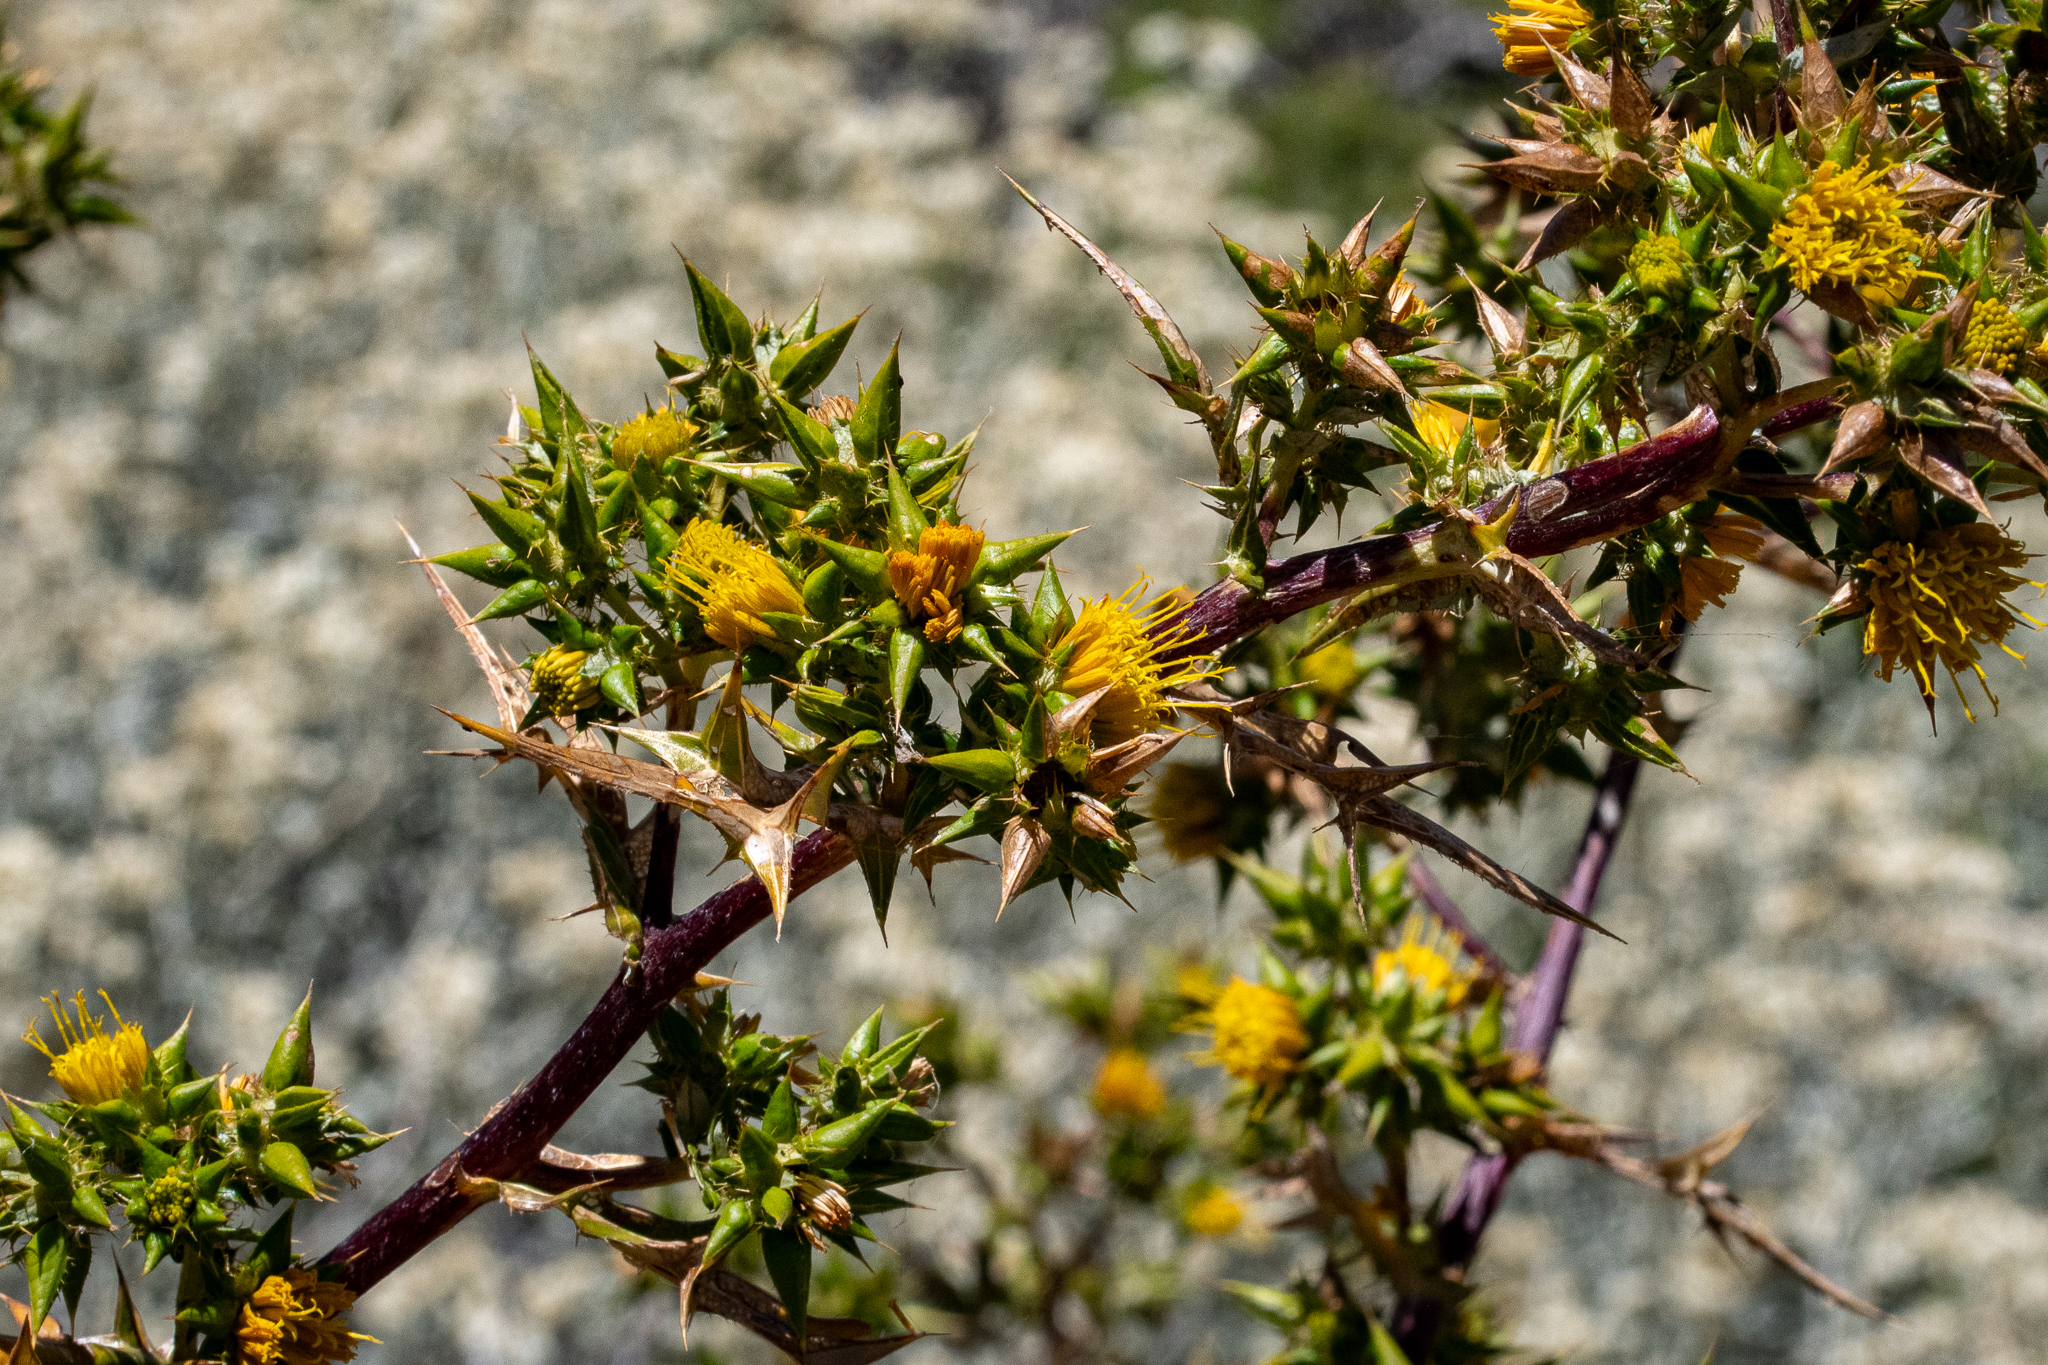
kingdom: Plantae
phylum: Tracheophyta
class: Magnoliopsida
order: Asterales
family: Asteraceae
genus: Berkheya
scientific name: Berkheya rigida
